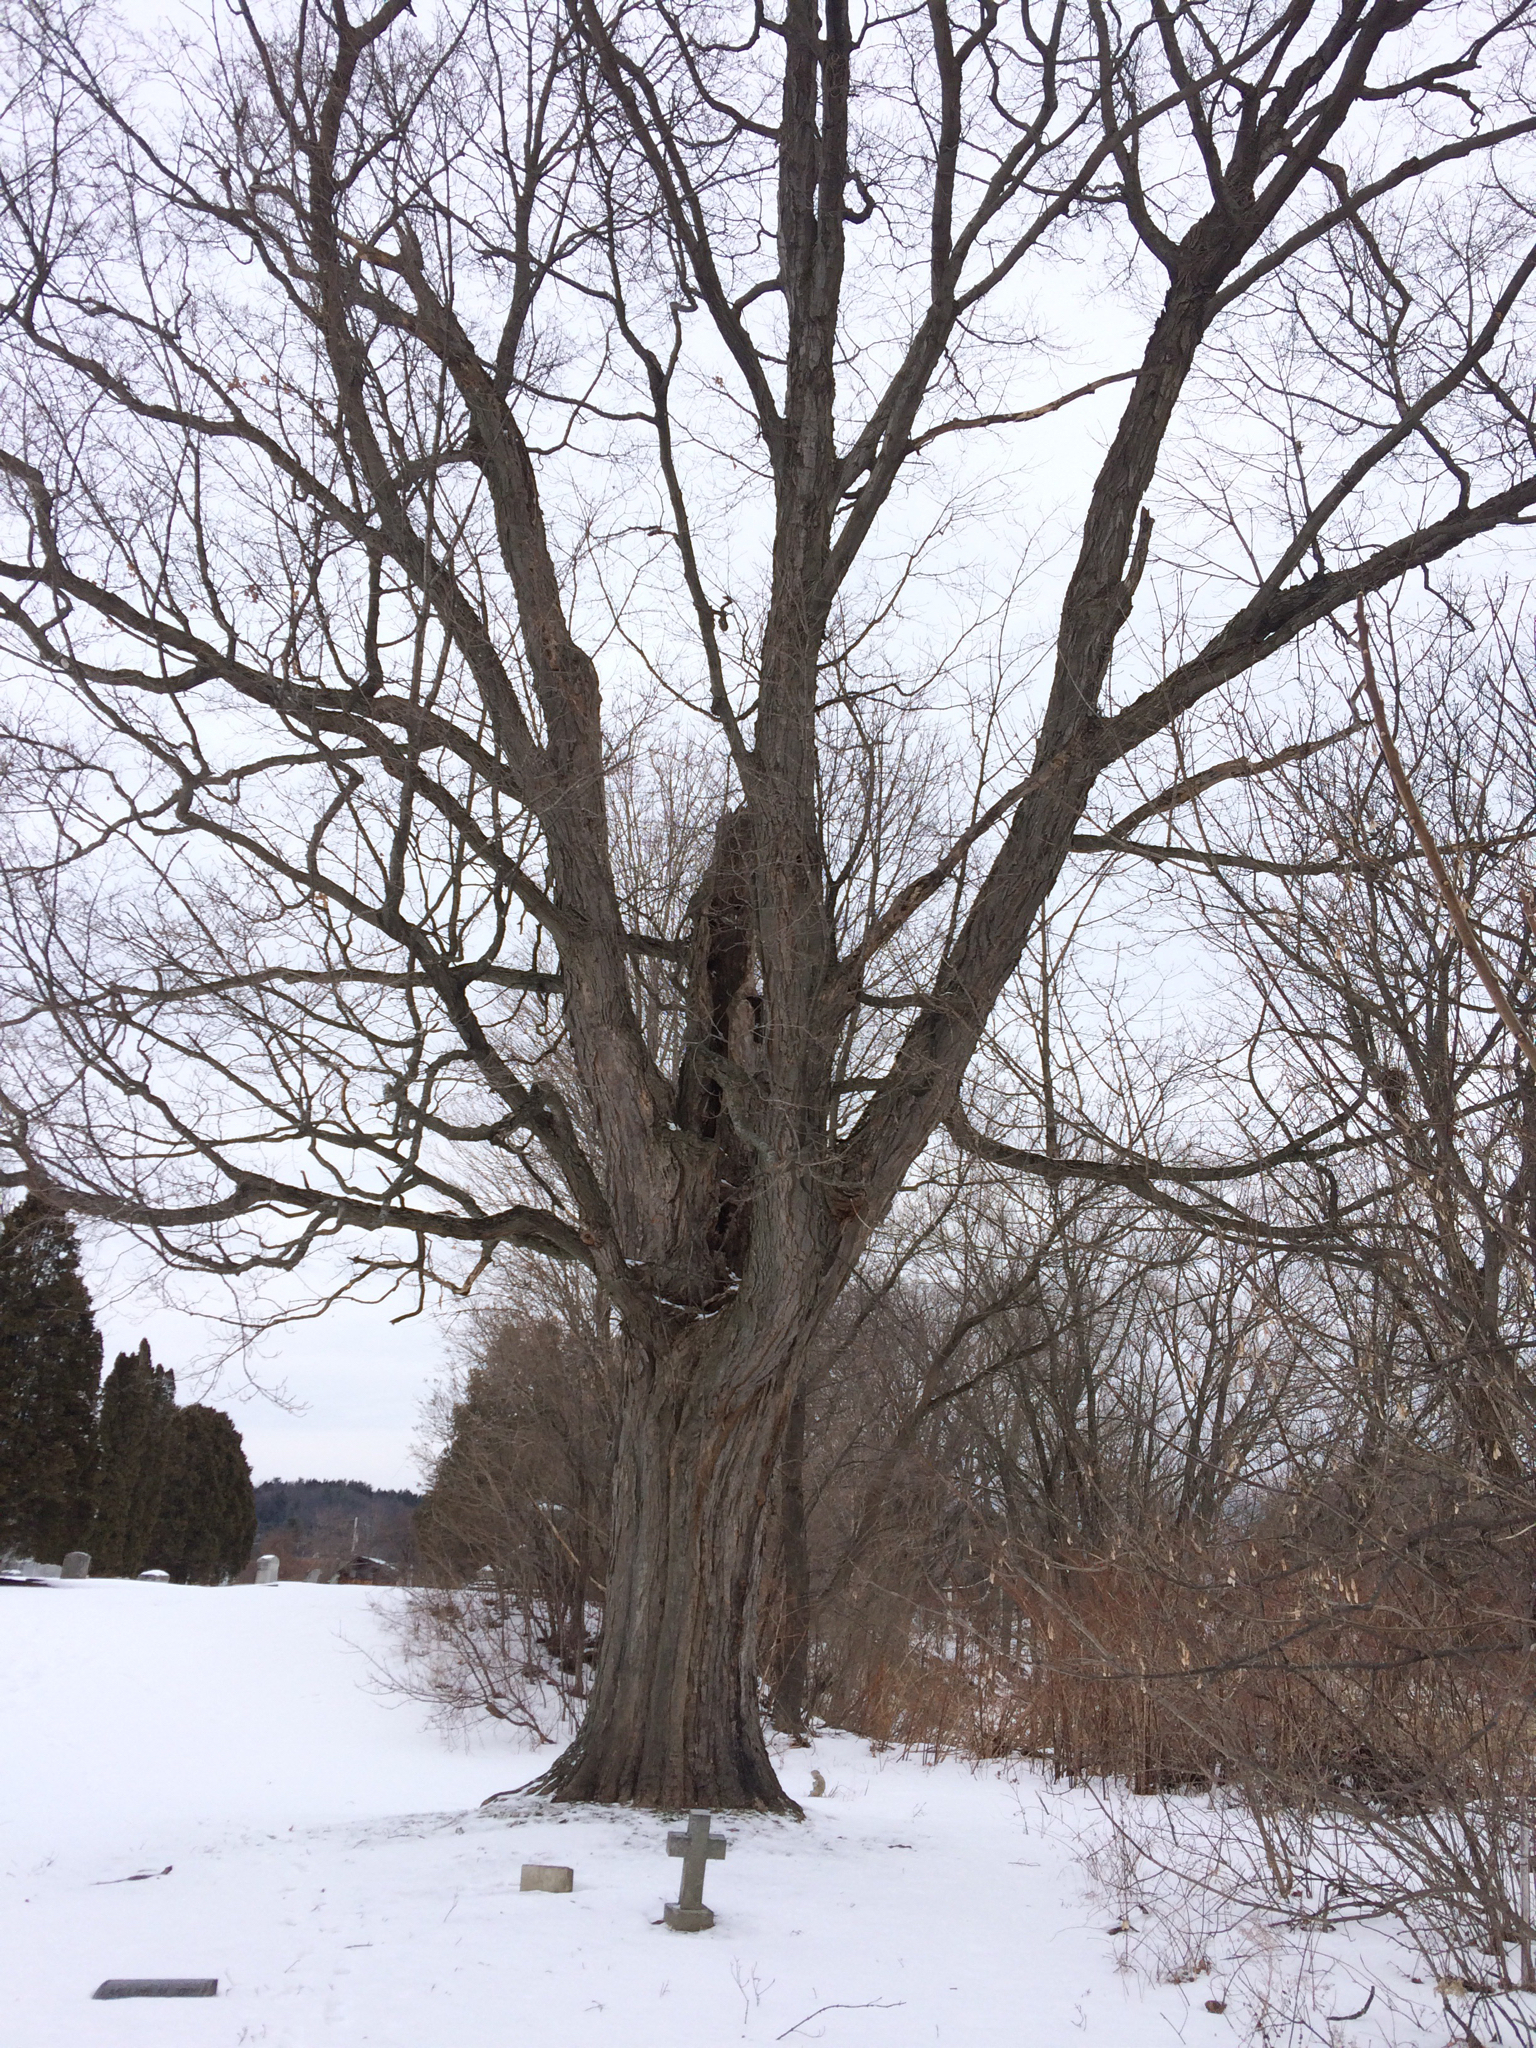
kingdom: Plantae
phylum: Tracheophyta
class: Magnoliopsida
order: Sapindales
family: Sapindaceae
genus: Acer
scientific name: Acer saccharum
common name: Sugar maple
